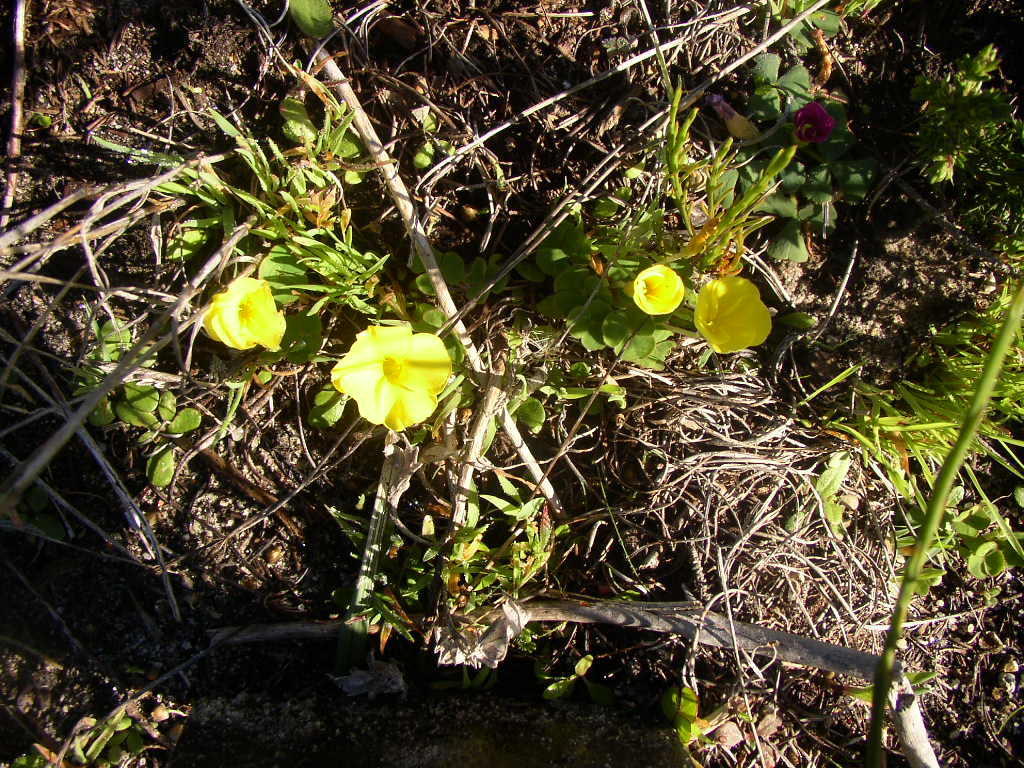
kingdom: Plantae
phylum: Tracheophyta
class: Magnoliopsida
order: Oxalidales
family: Oxalidaceae
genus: Oxalis
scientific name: Oxalis luteola
